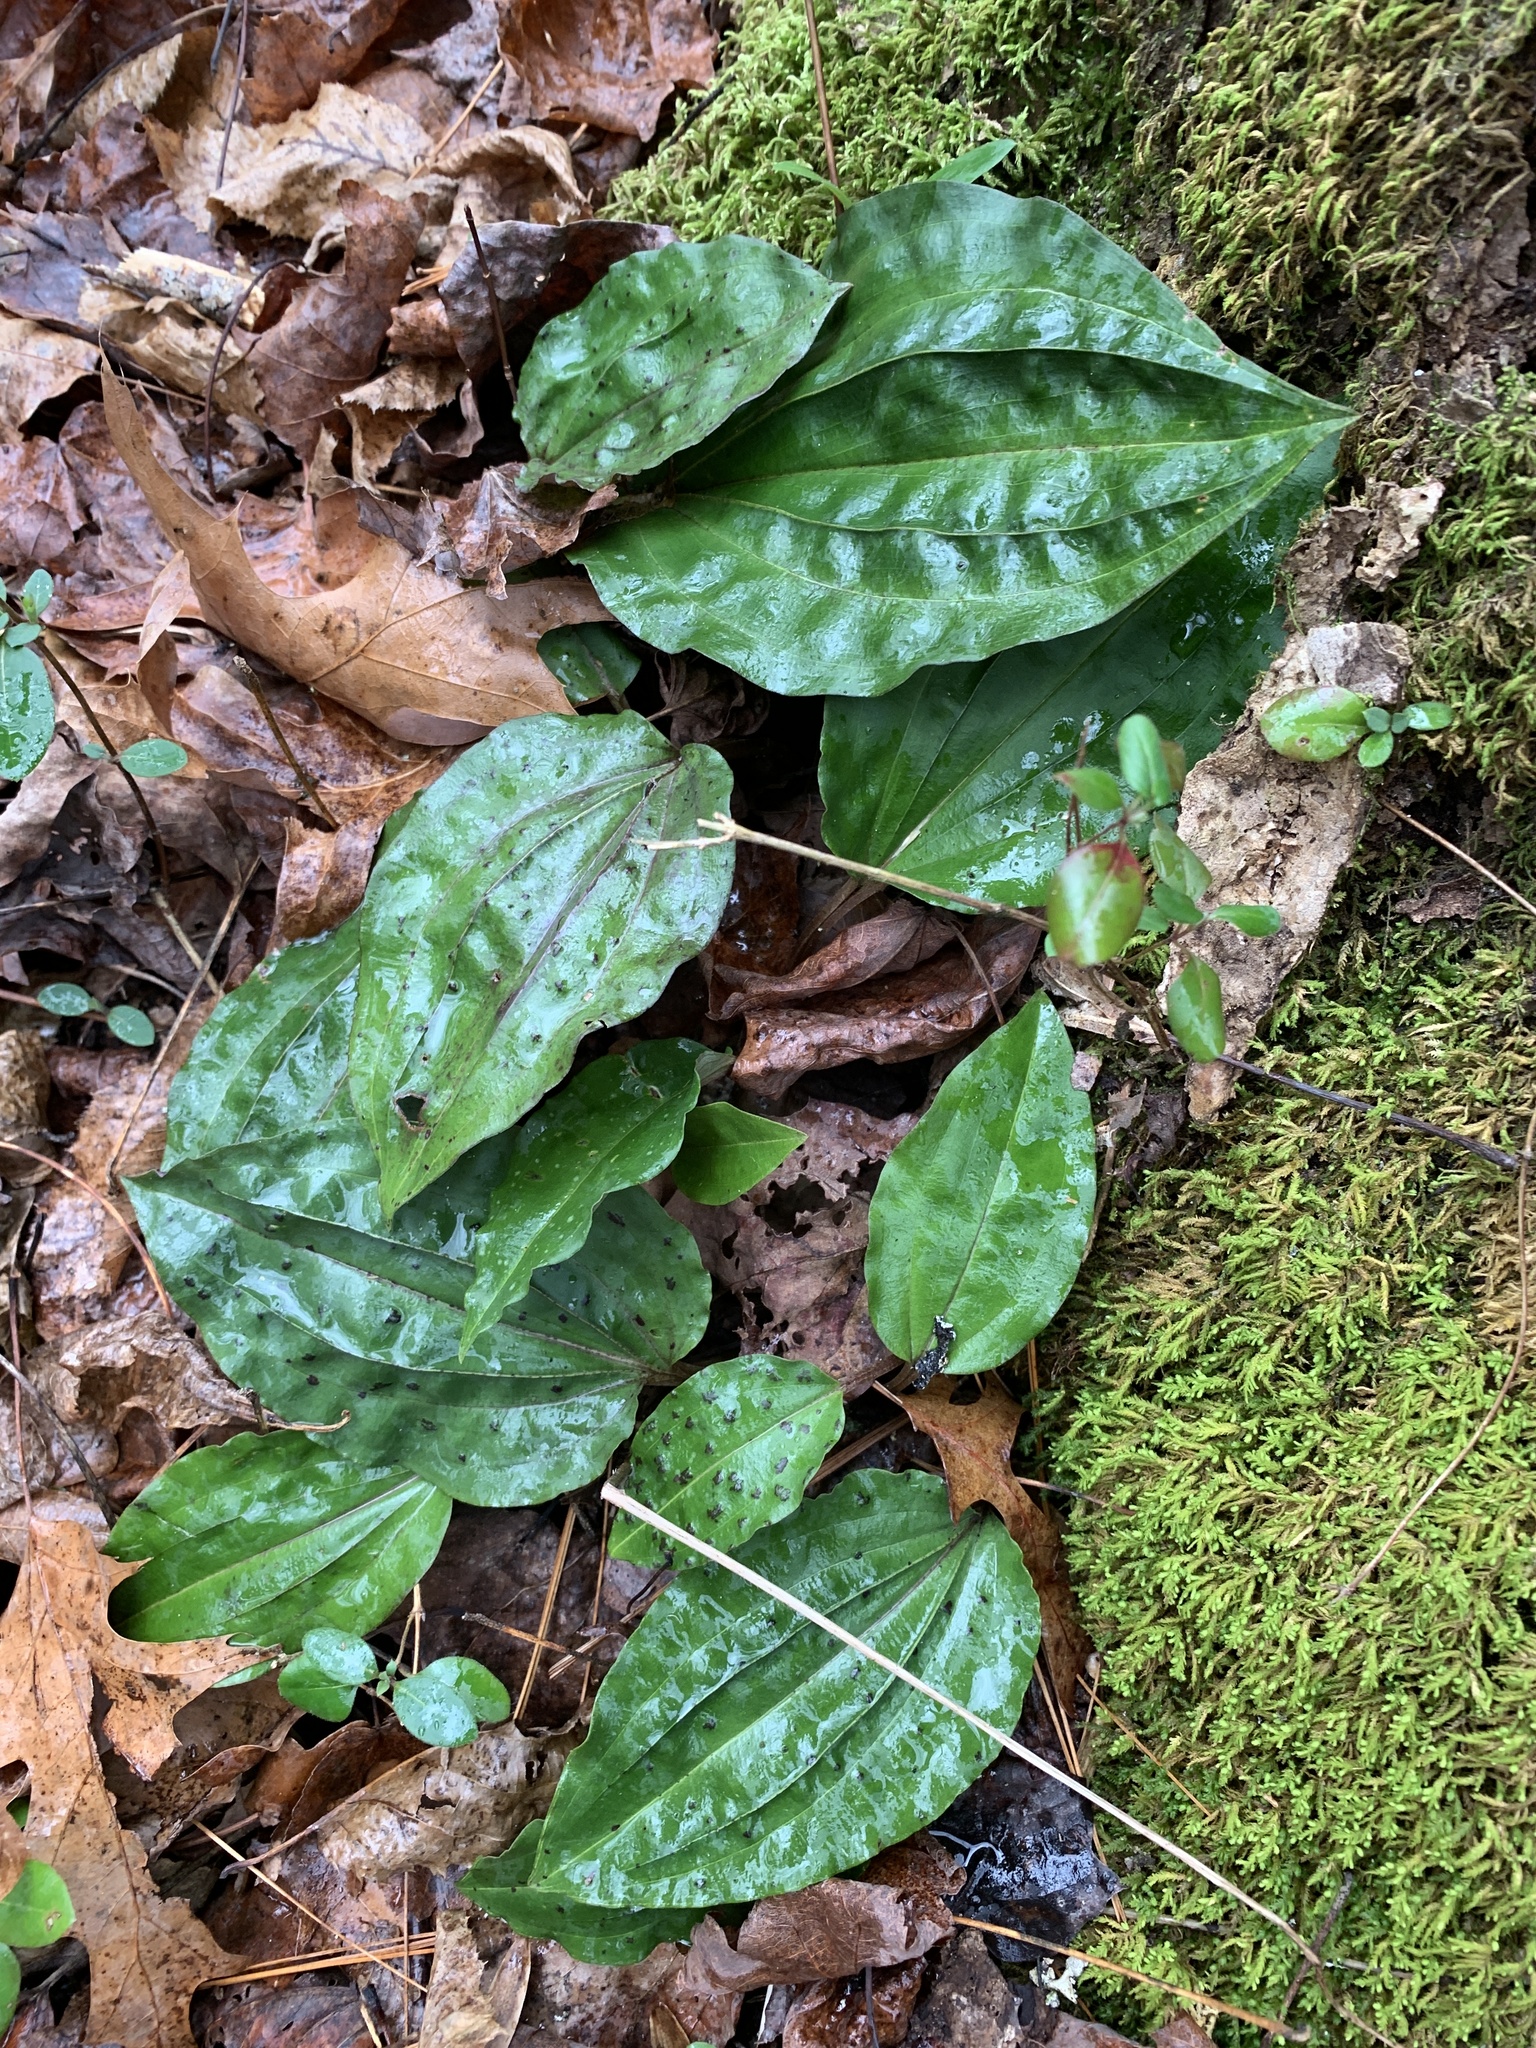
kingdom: Plantae
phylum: Tracheophyta
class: Liliopsida
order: Asparagales
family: Orchidaceae
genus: Tipularia
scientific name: Tipularia discolor
